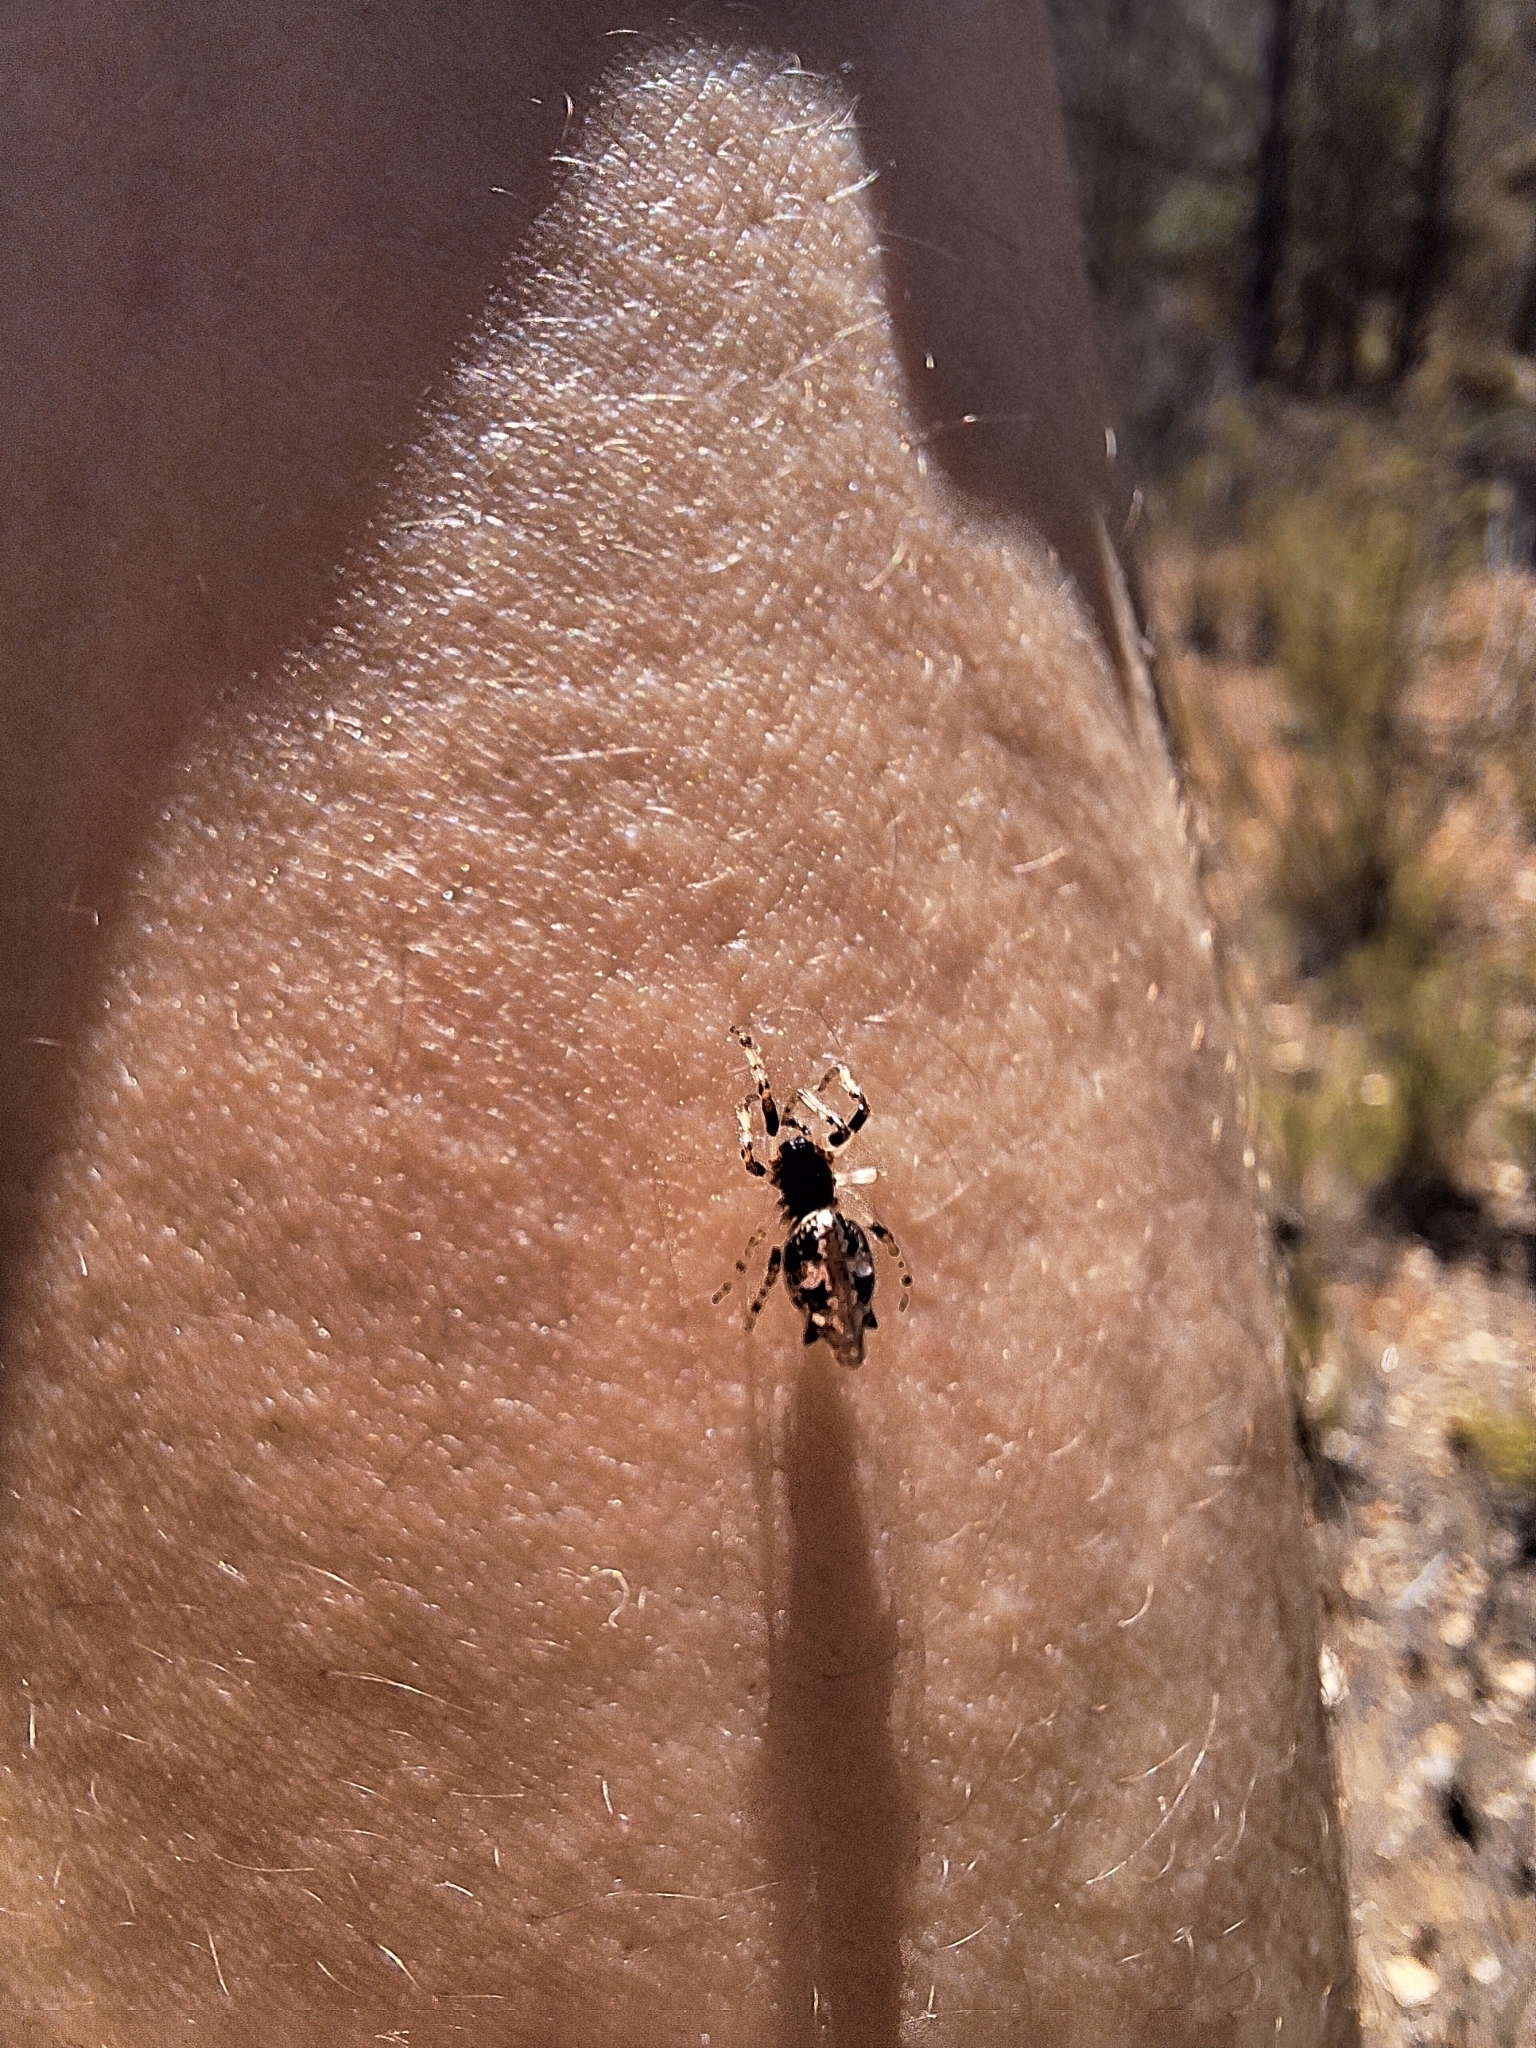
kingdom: Animalia
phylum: Arthropoda
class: Arachnida
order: Araneae
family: Araneidae
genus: Cyclosa
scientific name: Cyclosa insulana
